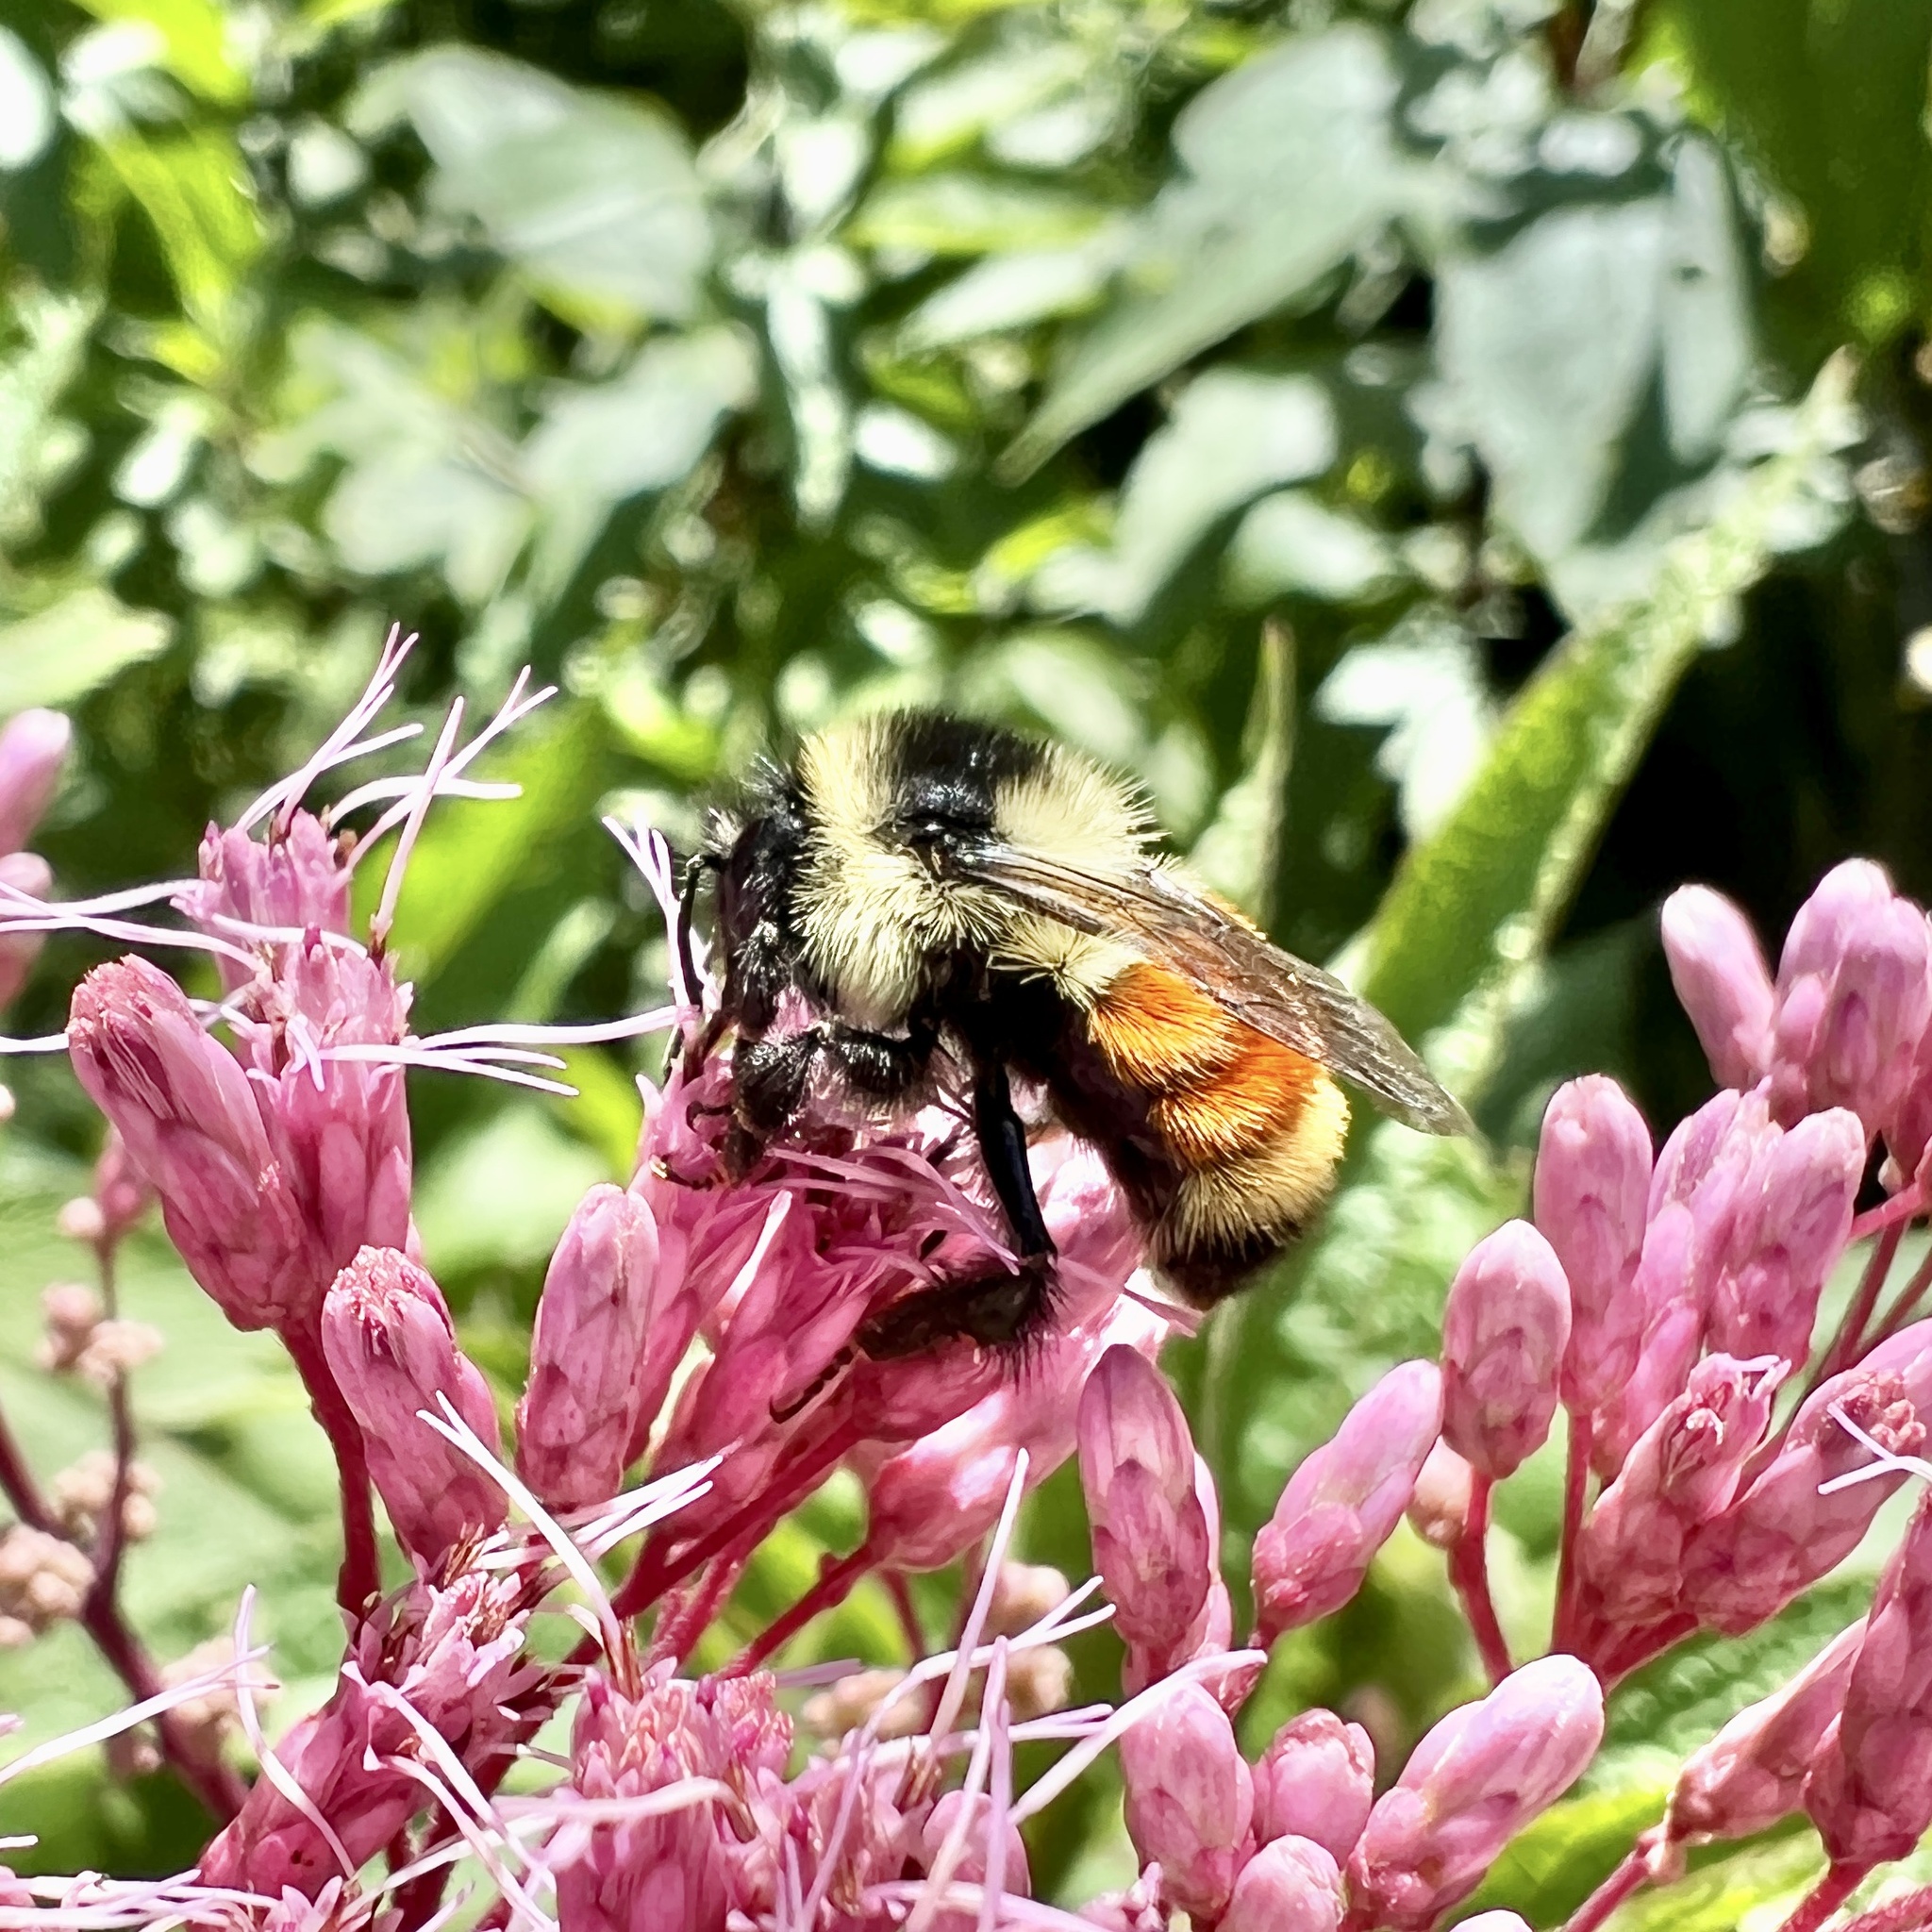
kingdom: Animalia
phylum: Arthropoda
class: Insecta
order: Hymenoptera
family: Apidae
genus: Bombus
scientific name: Bombus ternarius
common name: Tri-colored bumble bee
